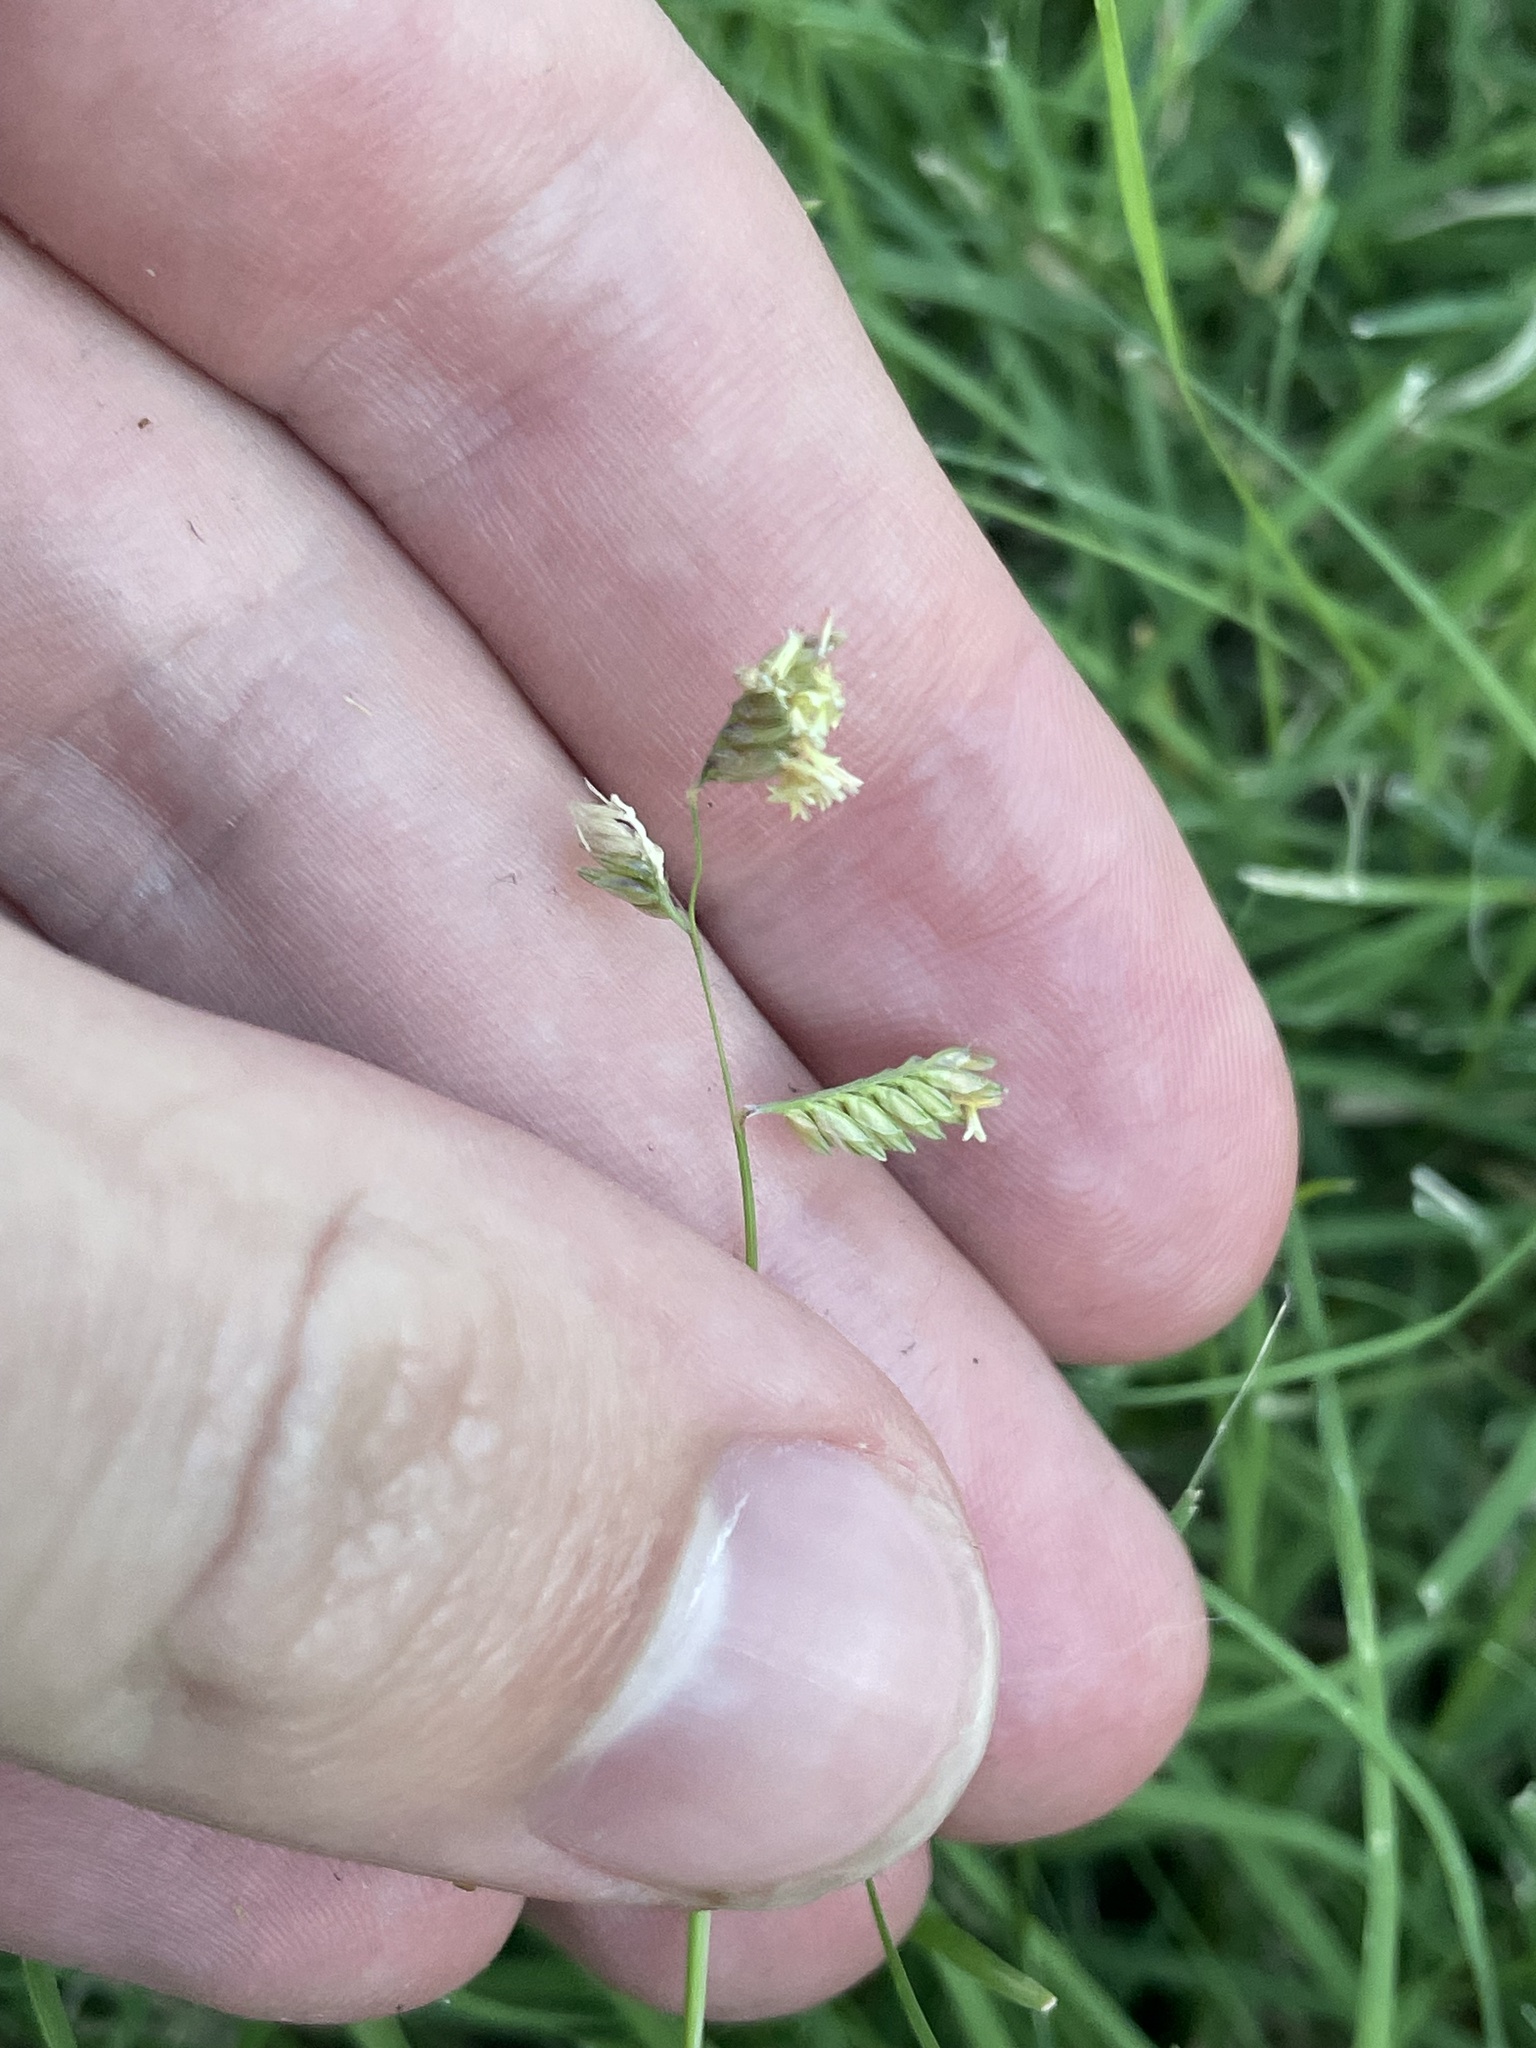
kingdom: Plantae
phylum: Tracheophyta
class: Liliopsida
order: Poales
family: Poaceae
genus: Bouteloua
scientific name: Bouteloua dactyloides
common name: Buffalo grass
